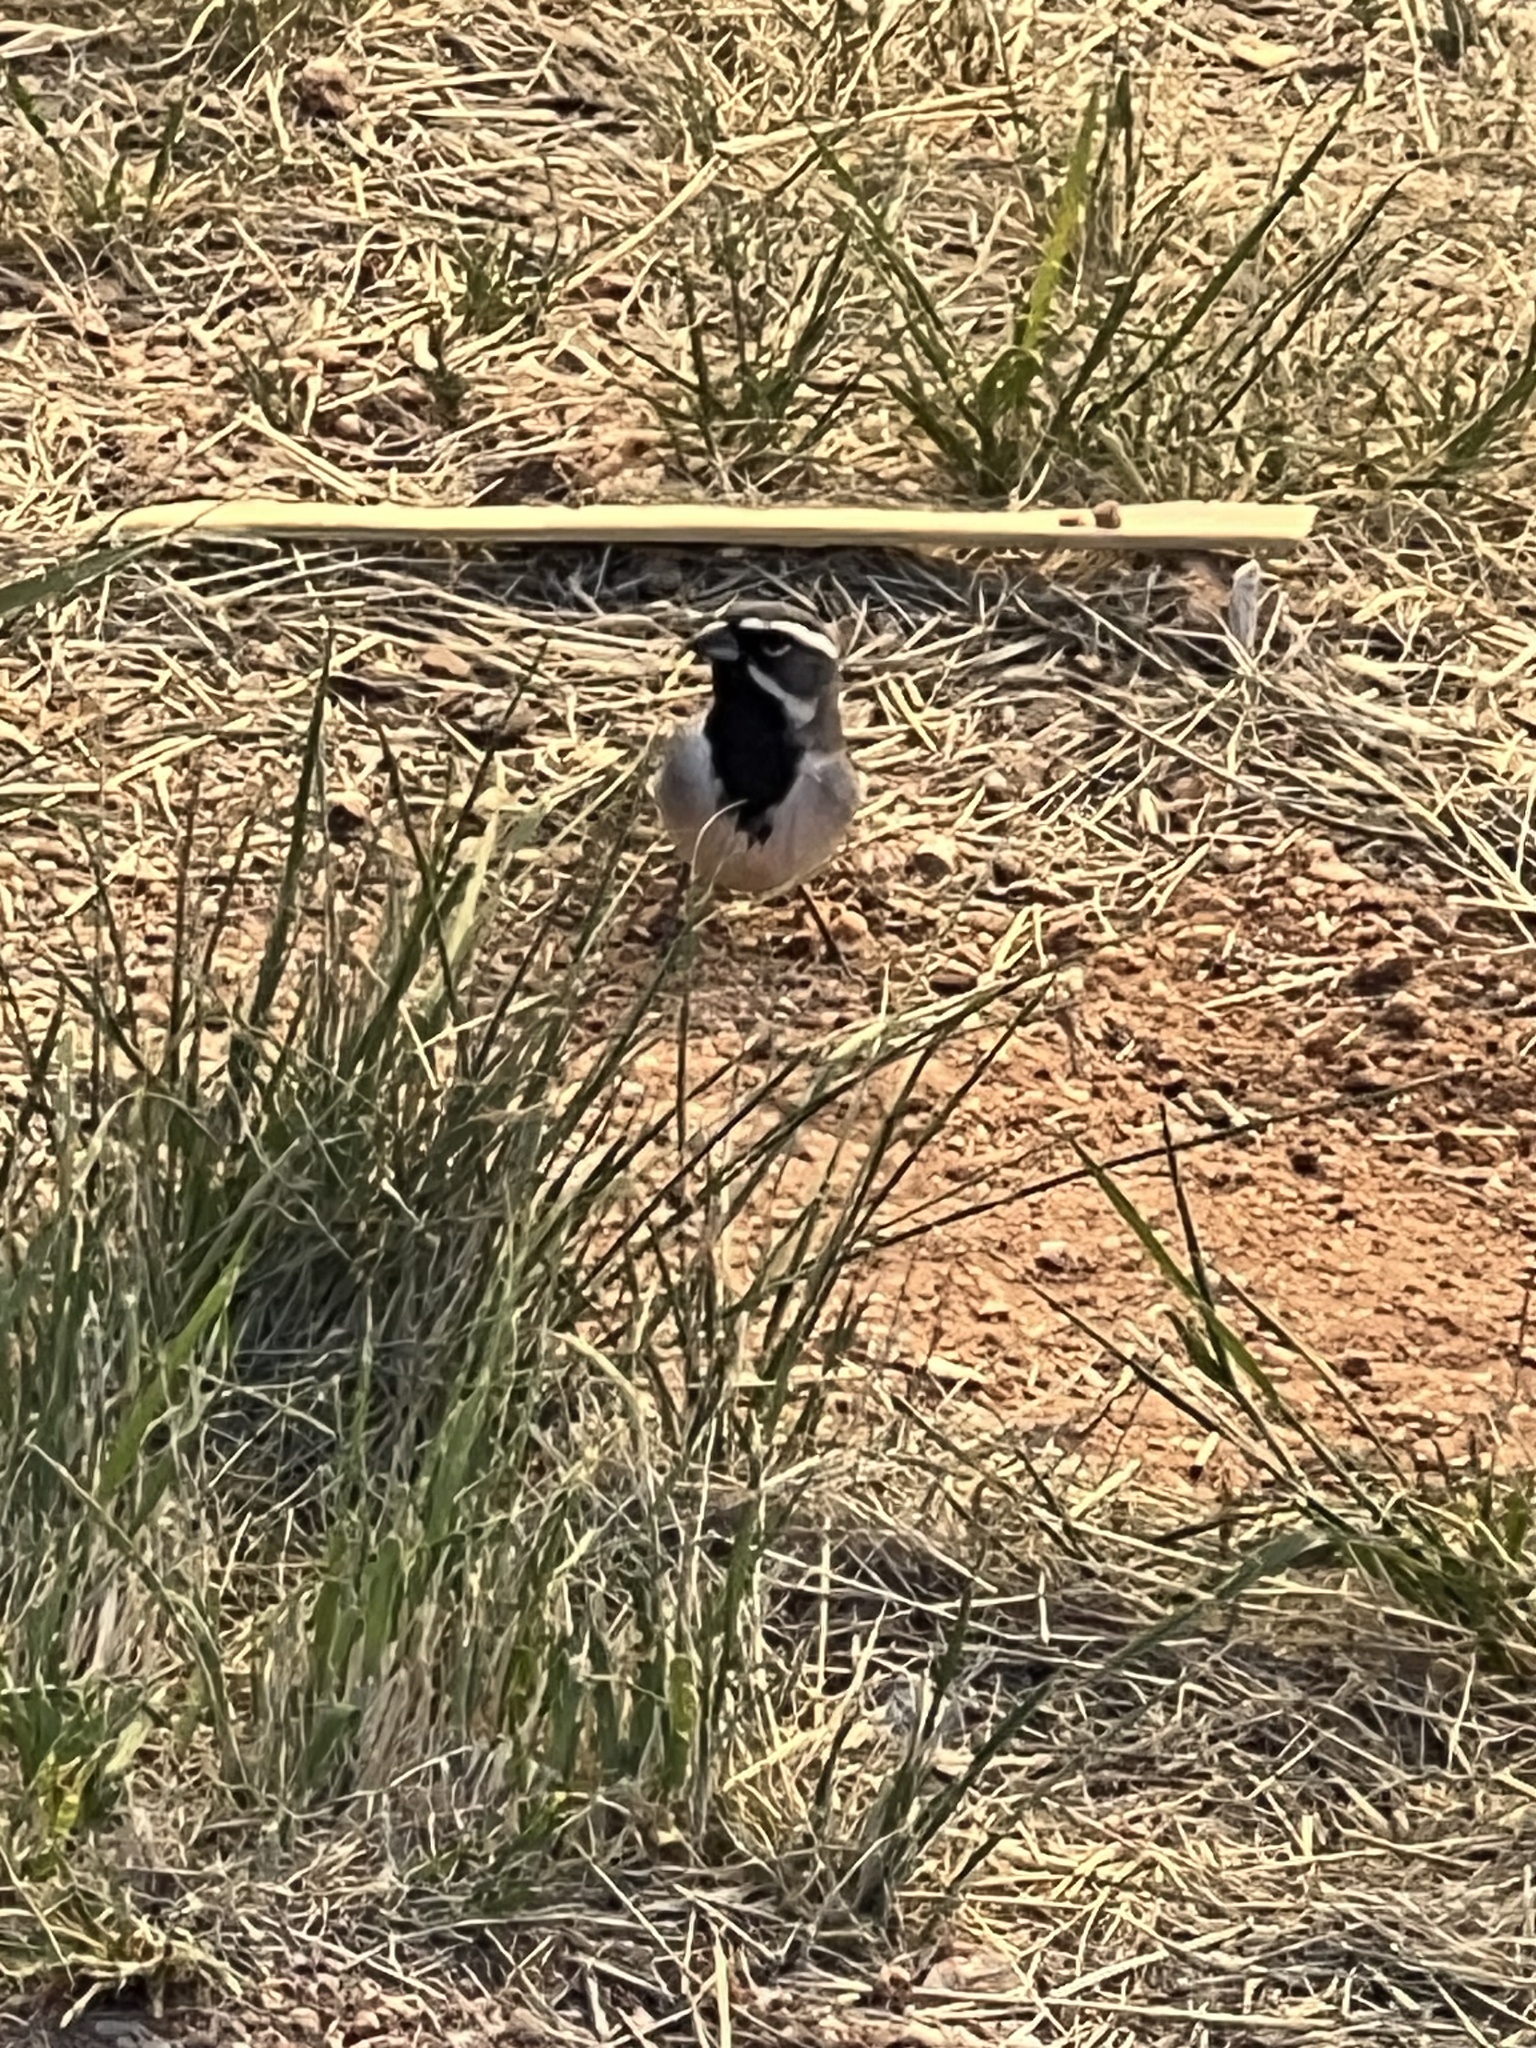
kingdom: Animalia
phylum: Chordata
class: Aves
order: Passeriformes
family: Passerellidae
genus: Amphispiza
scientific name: Amphispiza bilineata
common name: Black-throated sparrow
